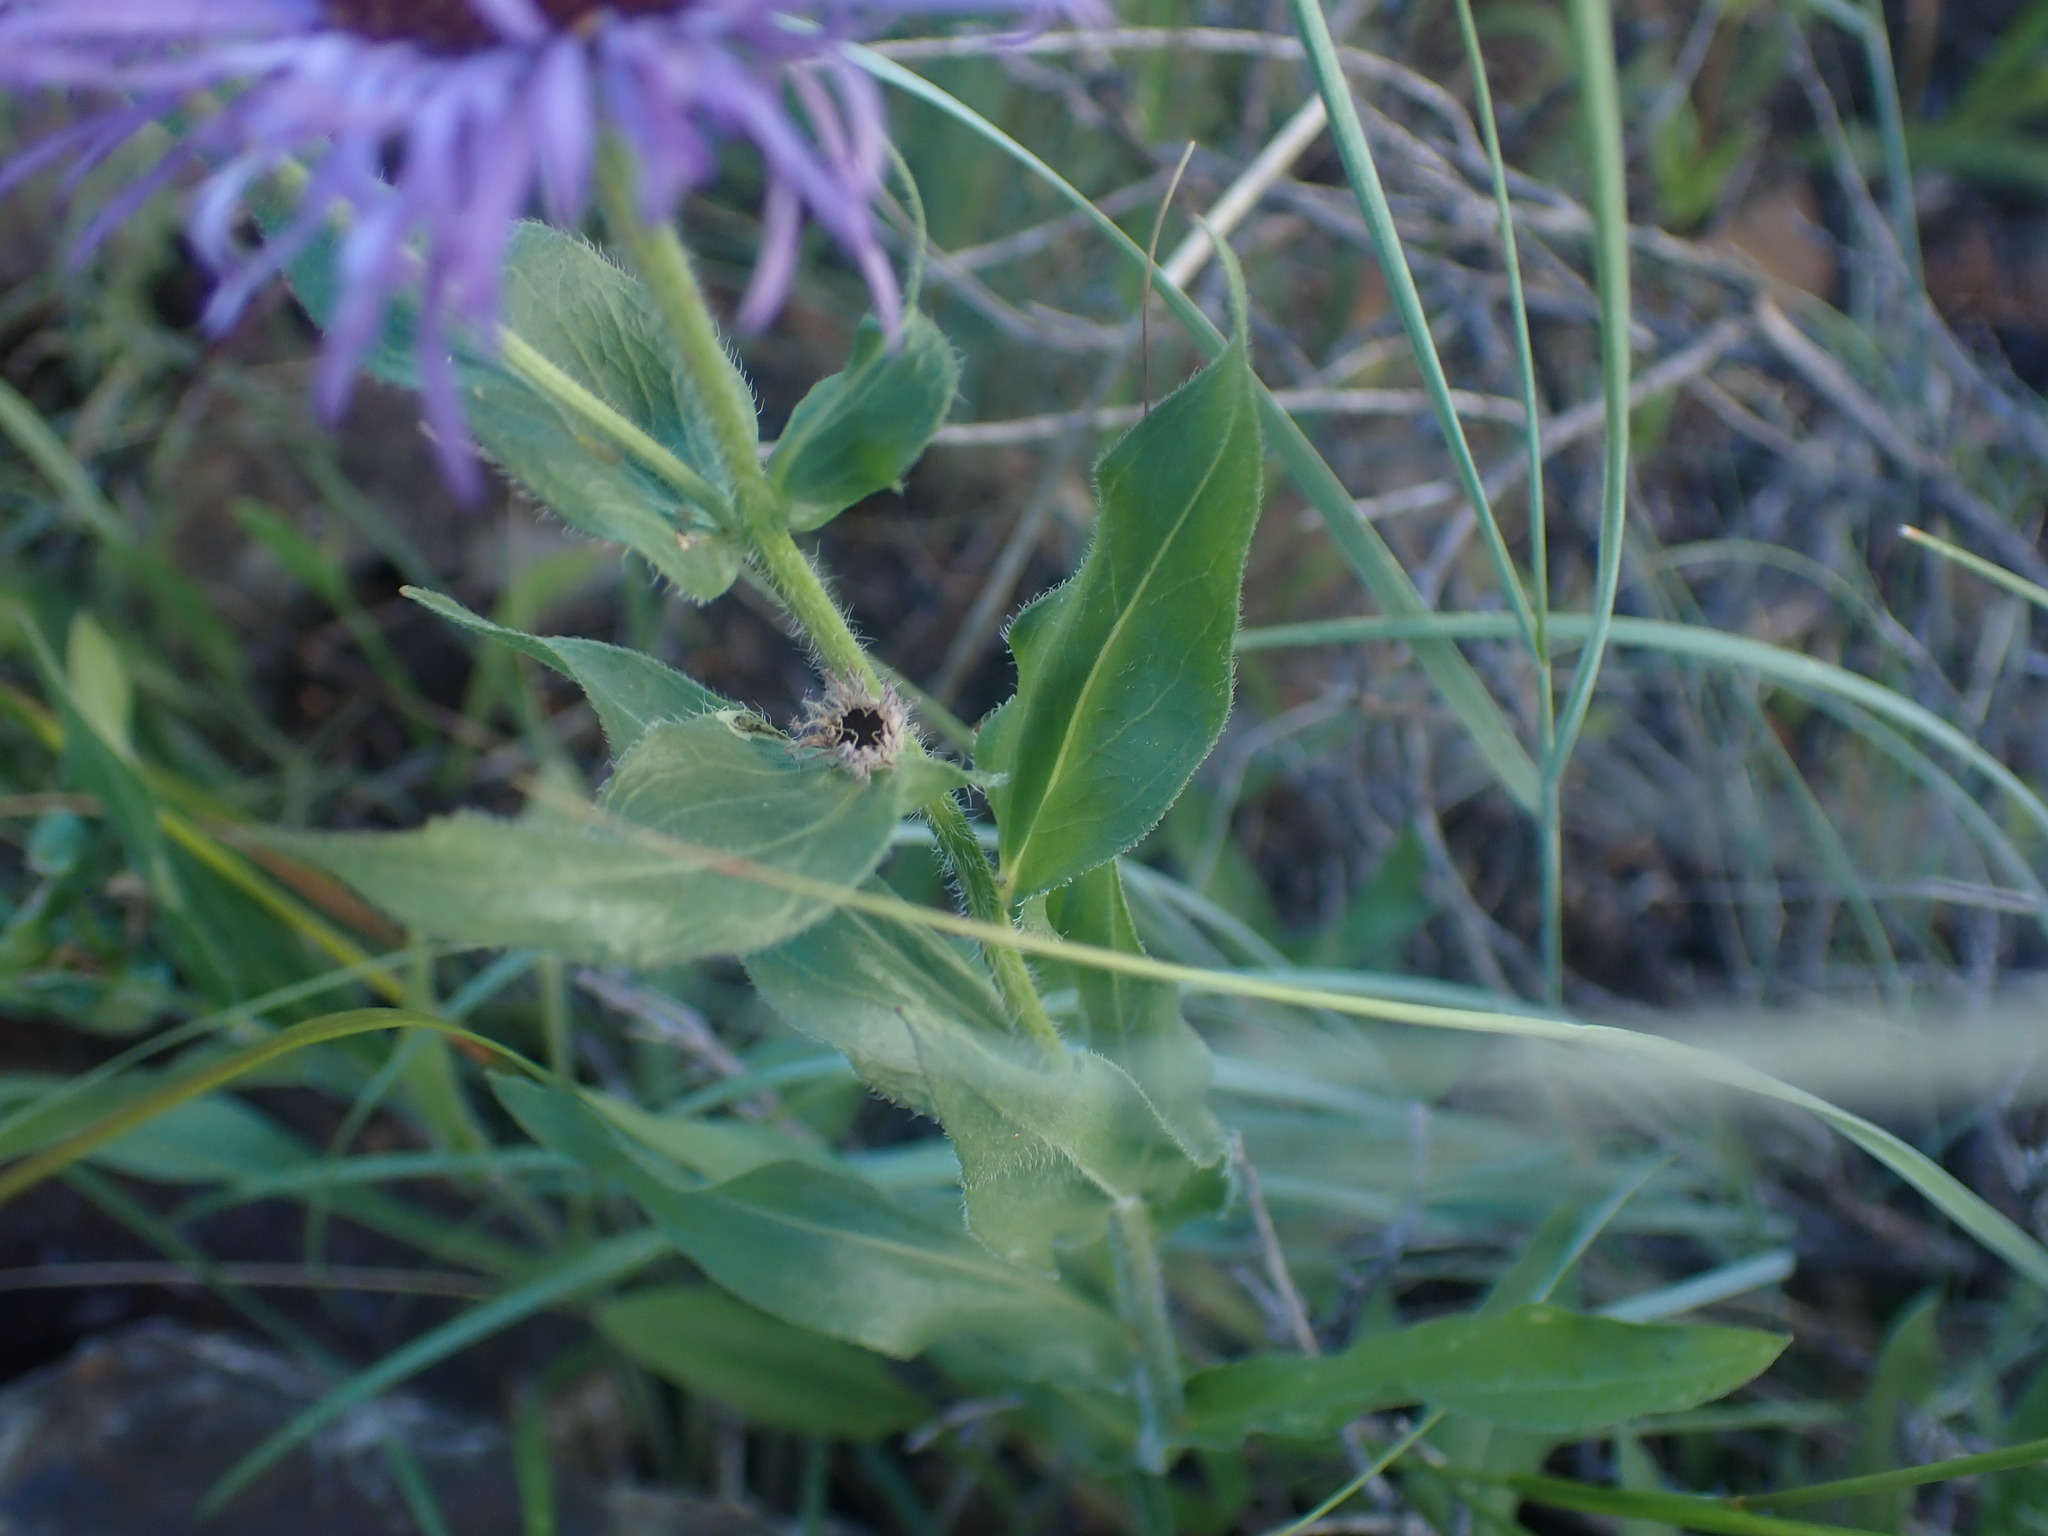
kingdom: Plantae
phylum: Tracheophyta
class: Magnoliopsida
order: Asterales
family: Asteraceae
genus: Erigeron
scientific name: Erigeron speciosus
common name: Aspen fleabane
